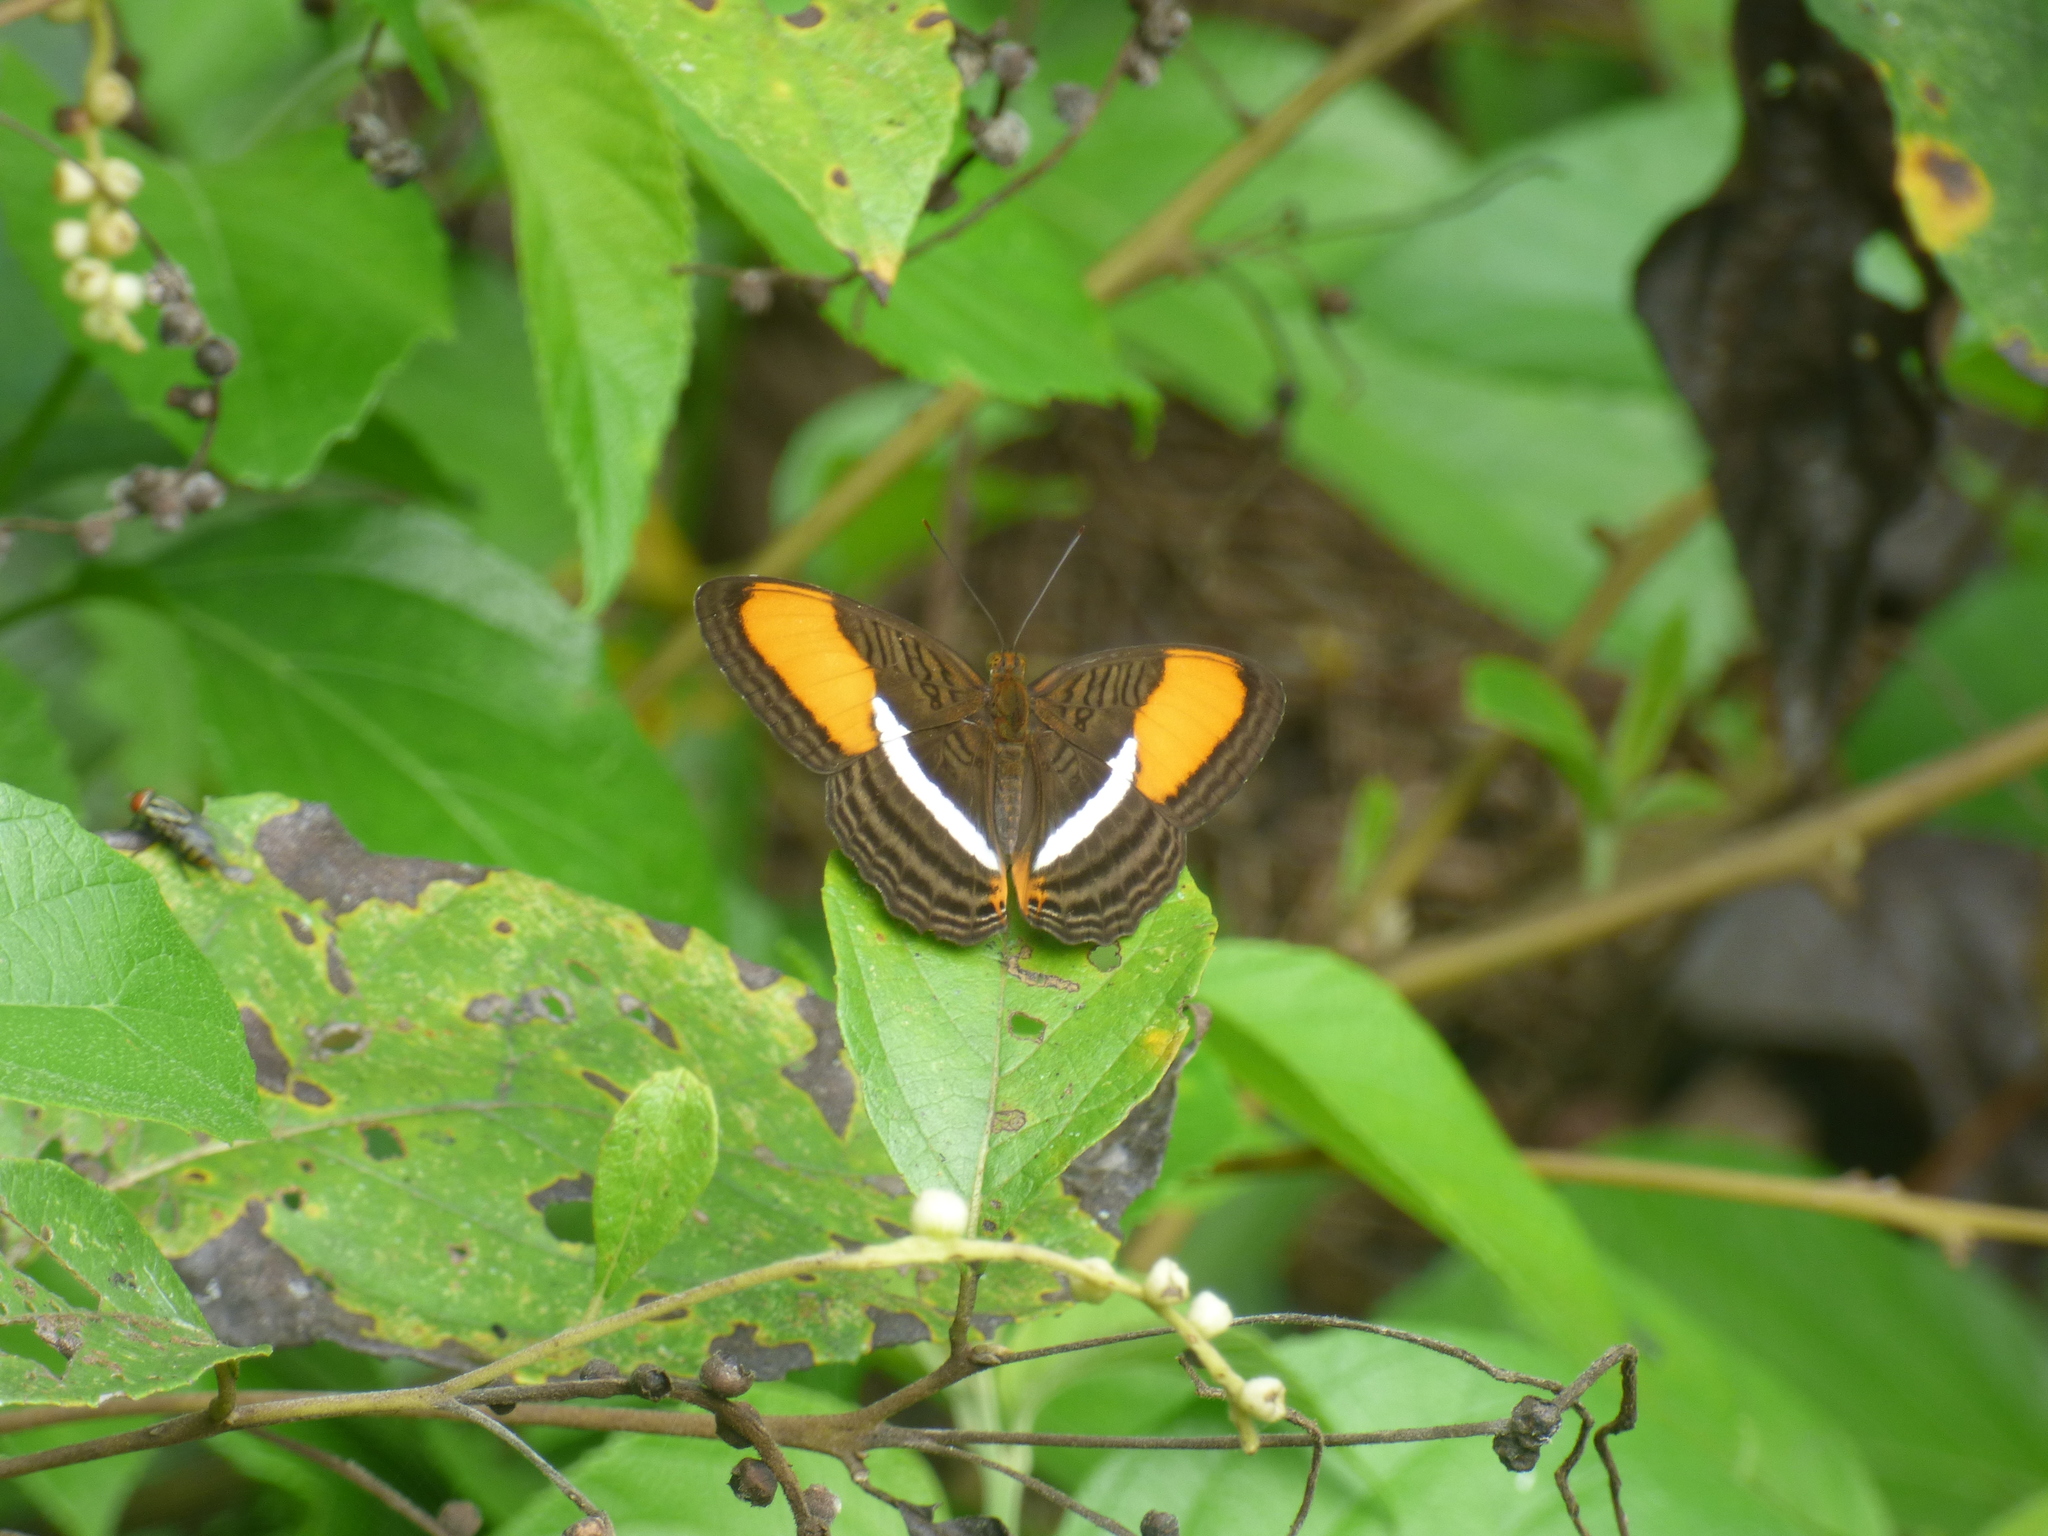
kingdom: Animalia
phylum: Arthropoda
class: Insecta
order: Lepidoptera
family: Nymphalidae
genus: Limenitis
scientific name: Limenitis cytherea
